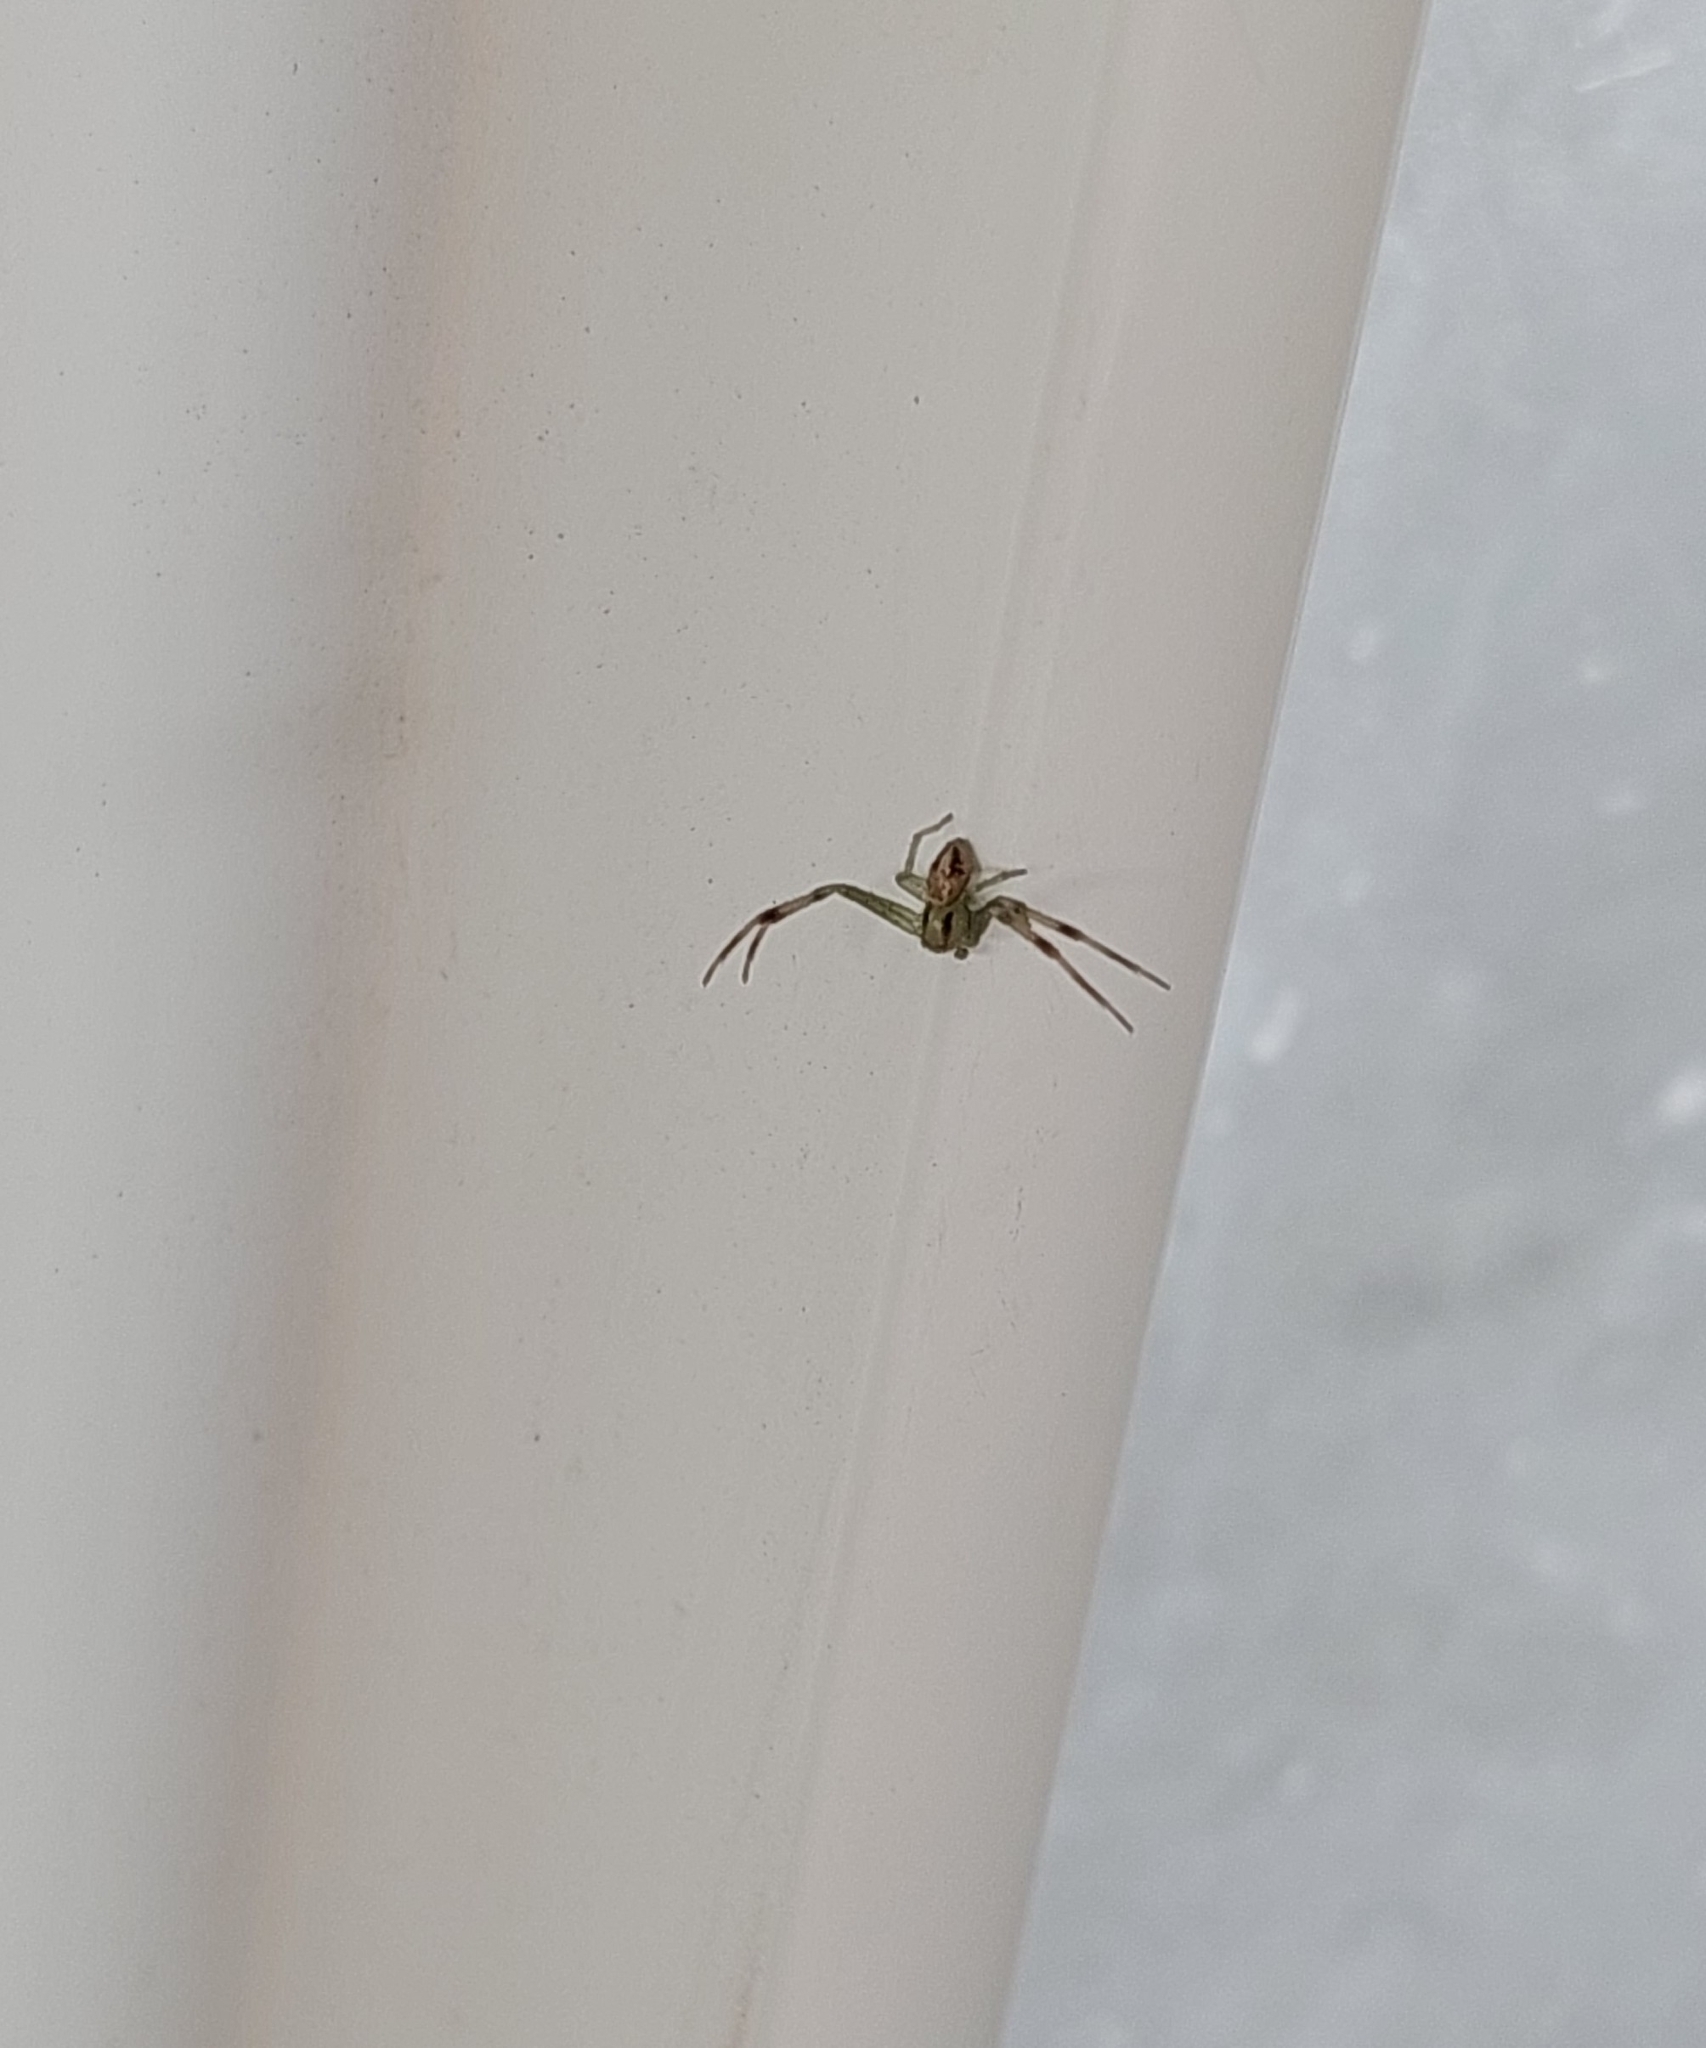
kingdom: Animalia
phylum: Arthropoda
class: Arachnida
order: Araneae
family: Thomisidae
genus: Misumenops
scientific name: Misumenops
